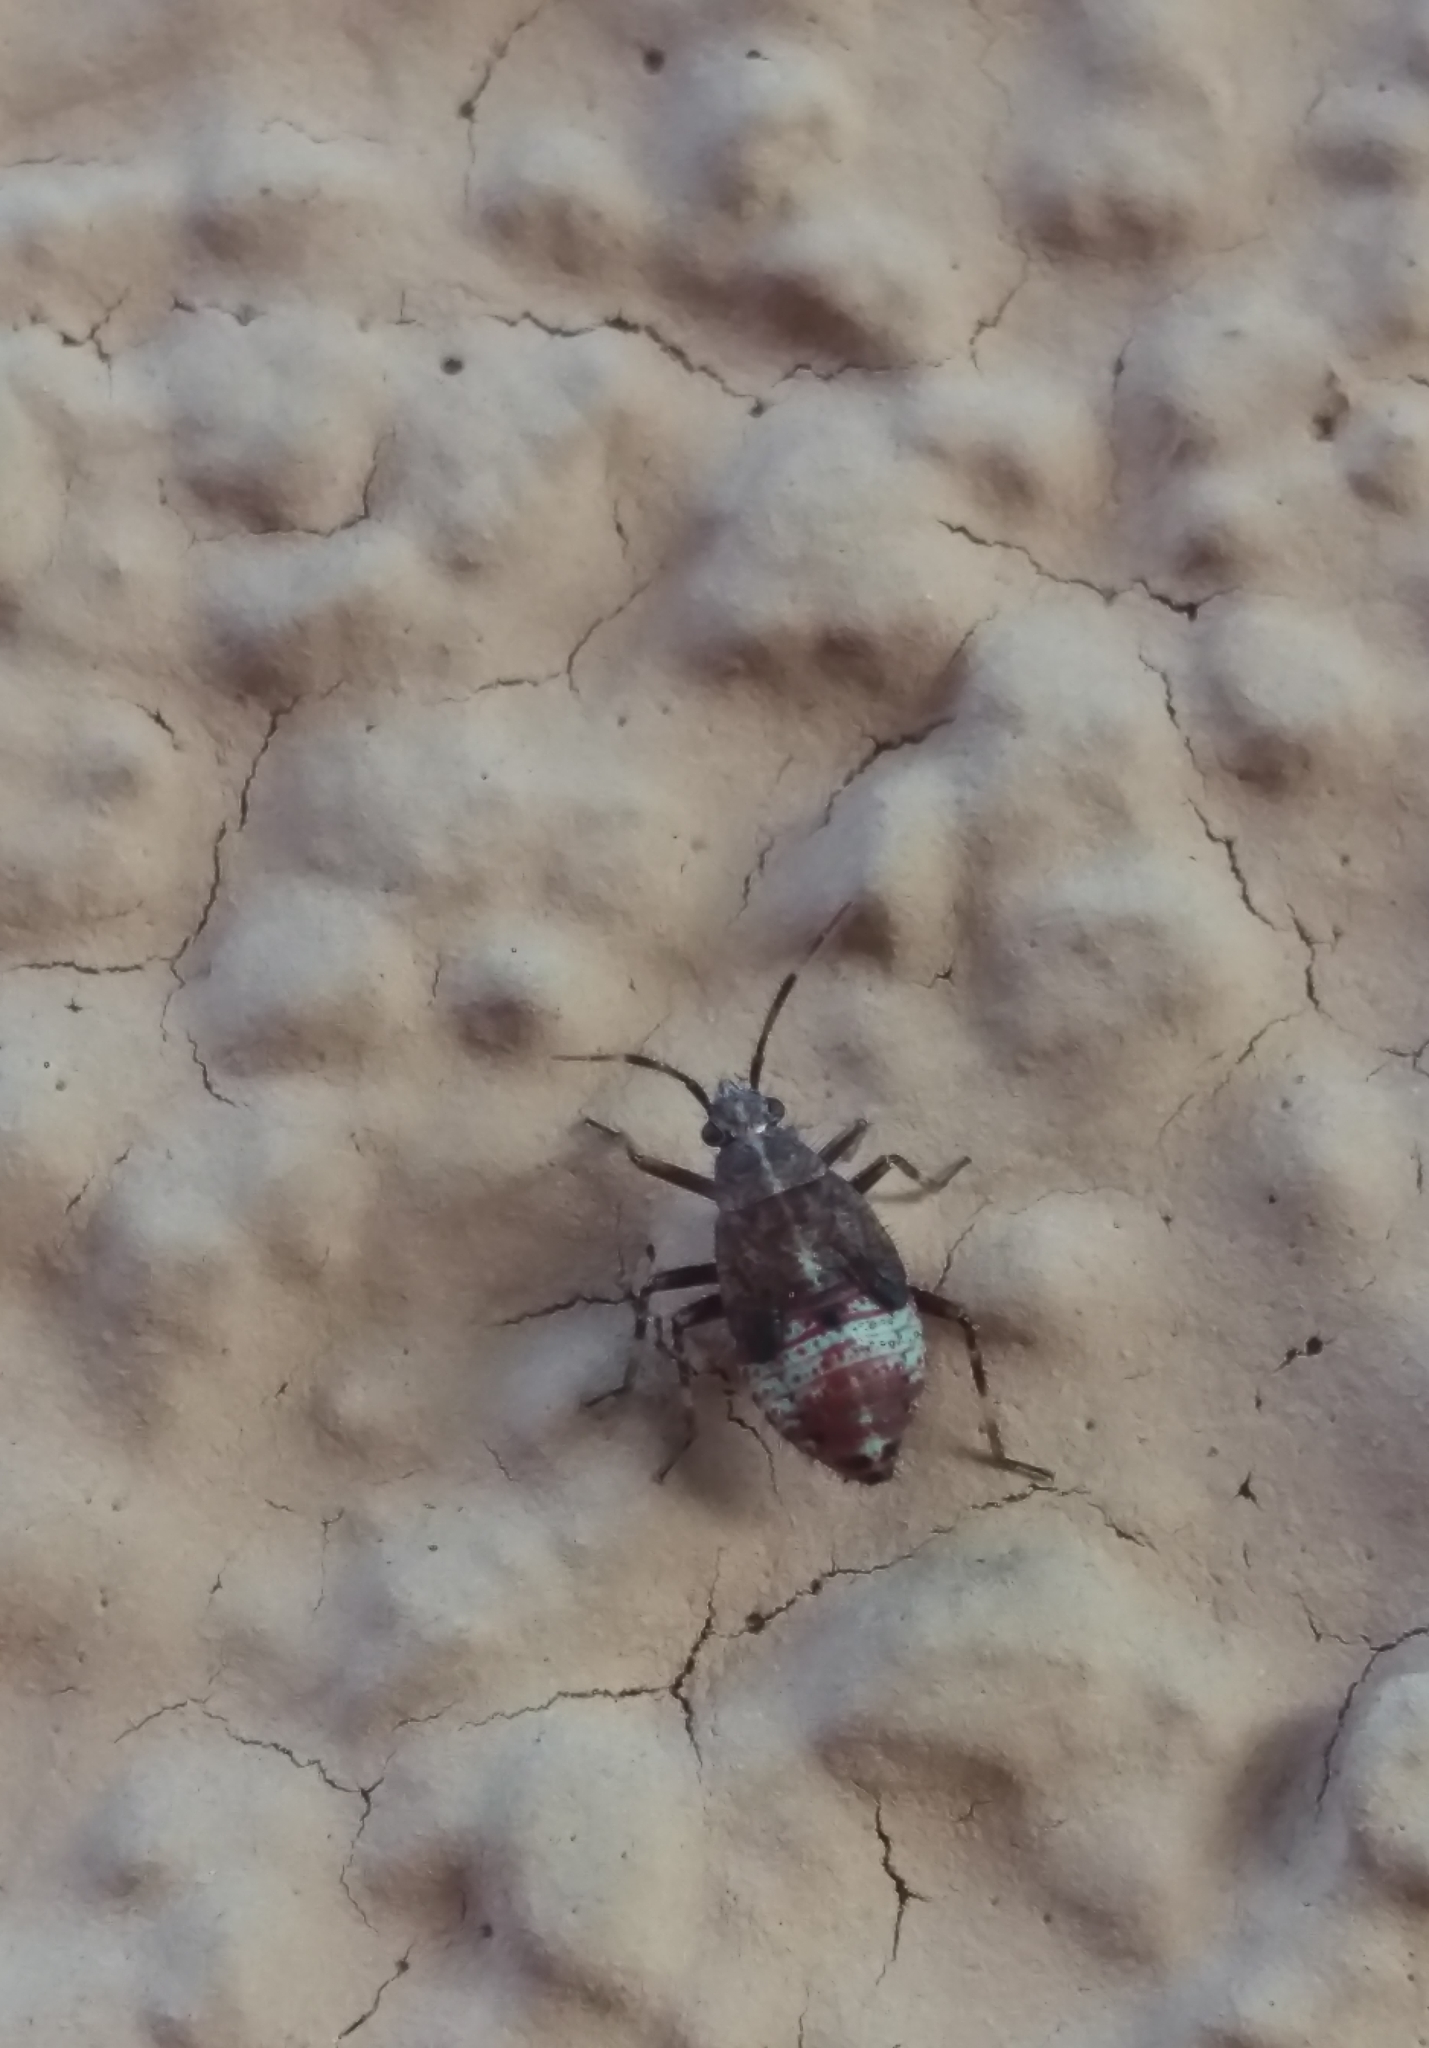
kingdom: Animalia
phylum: Arthropoda
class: Insecta
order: Hemiptera
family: Miridae
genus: Deraeocoris
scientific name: Deraeocoris flavilinea
